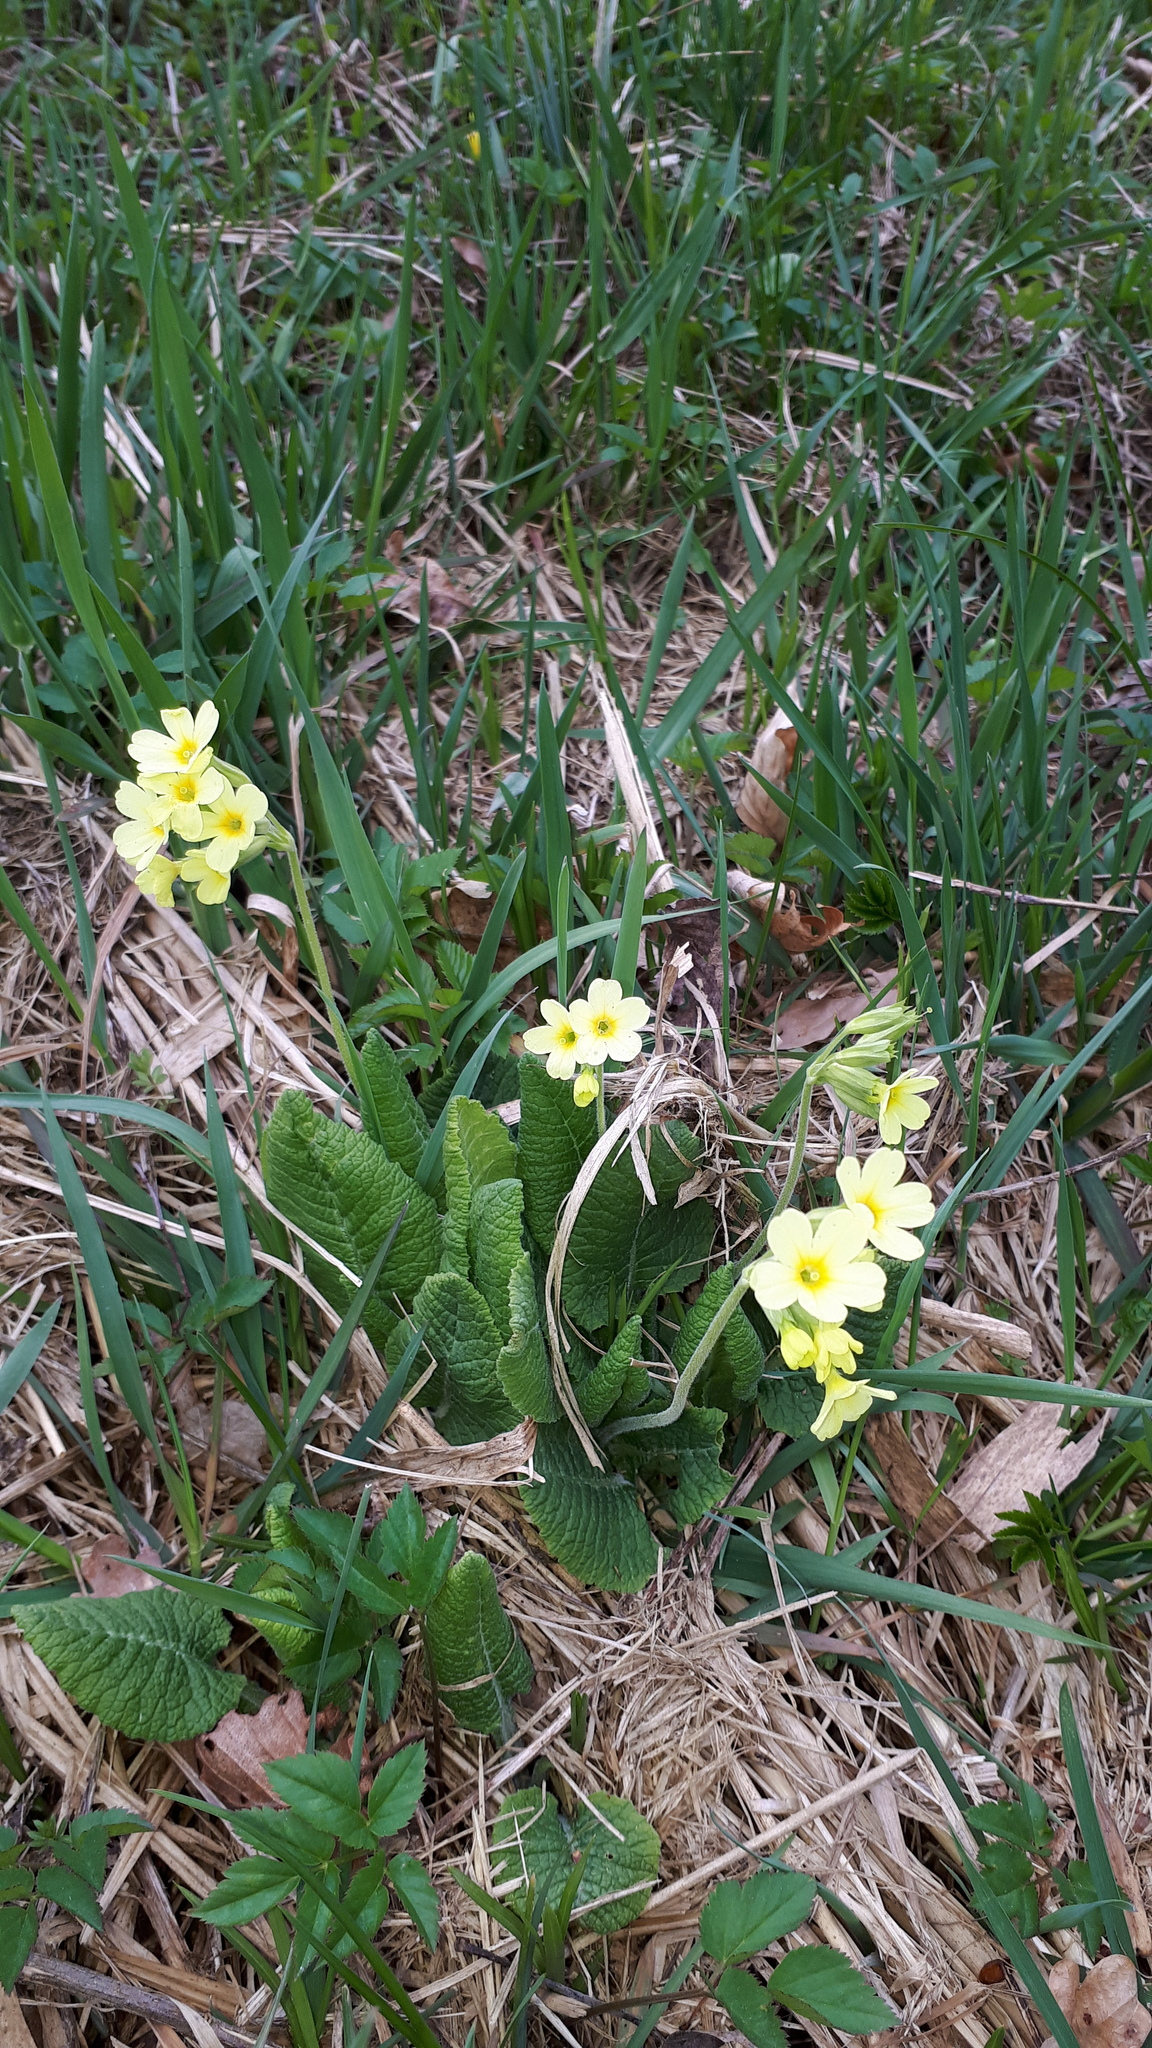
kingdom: Plantae
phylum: Tracheophyta
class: Magnoliopsida
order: Ericales
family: Primulaceae
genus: Primula
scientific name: Primula elatior
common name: Oxlip
